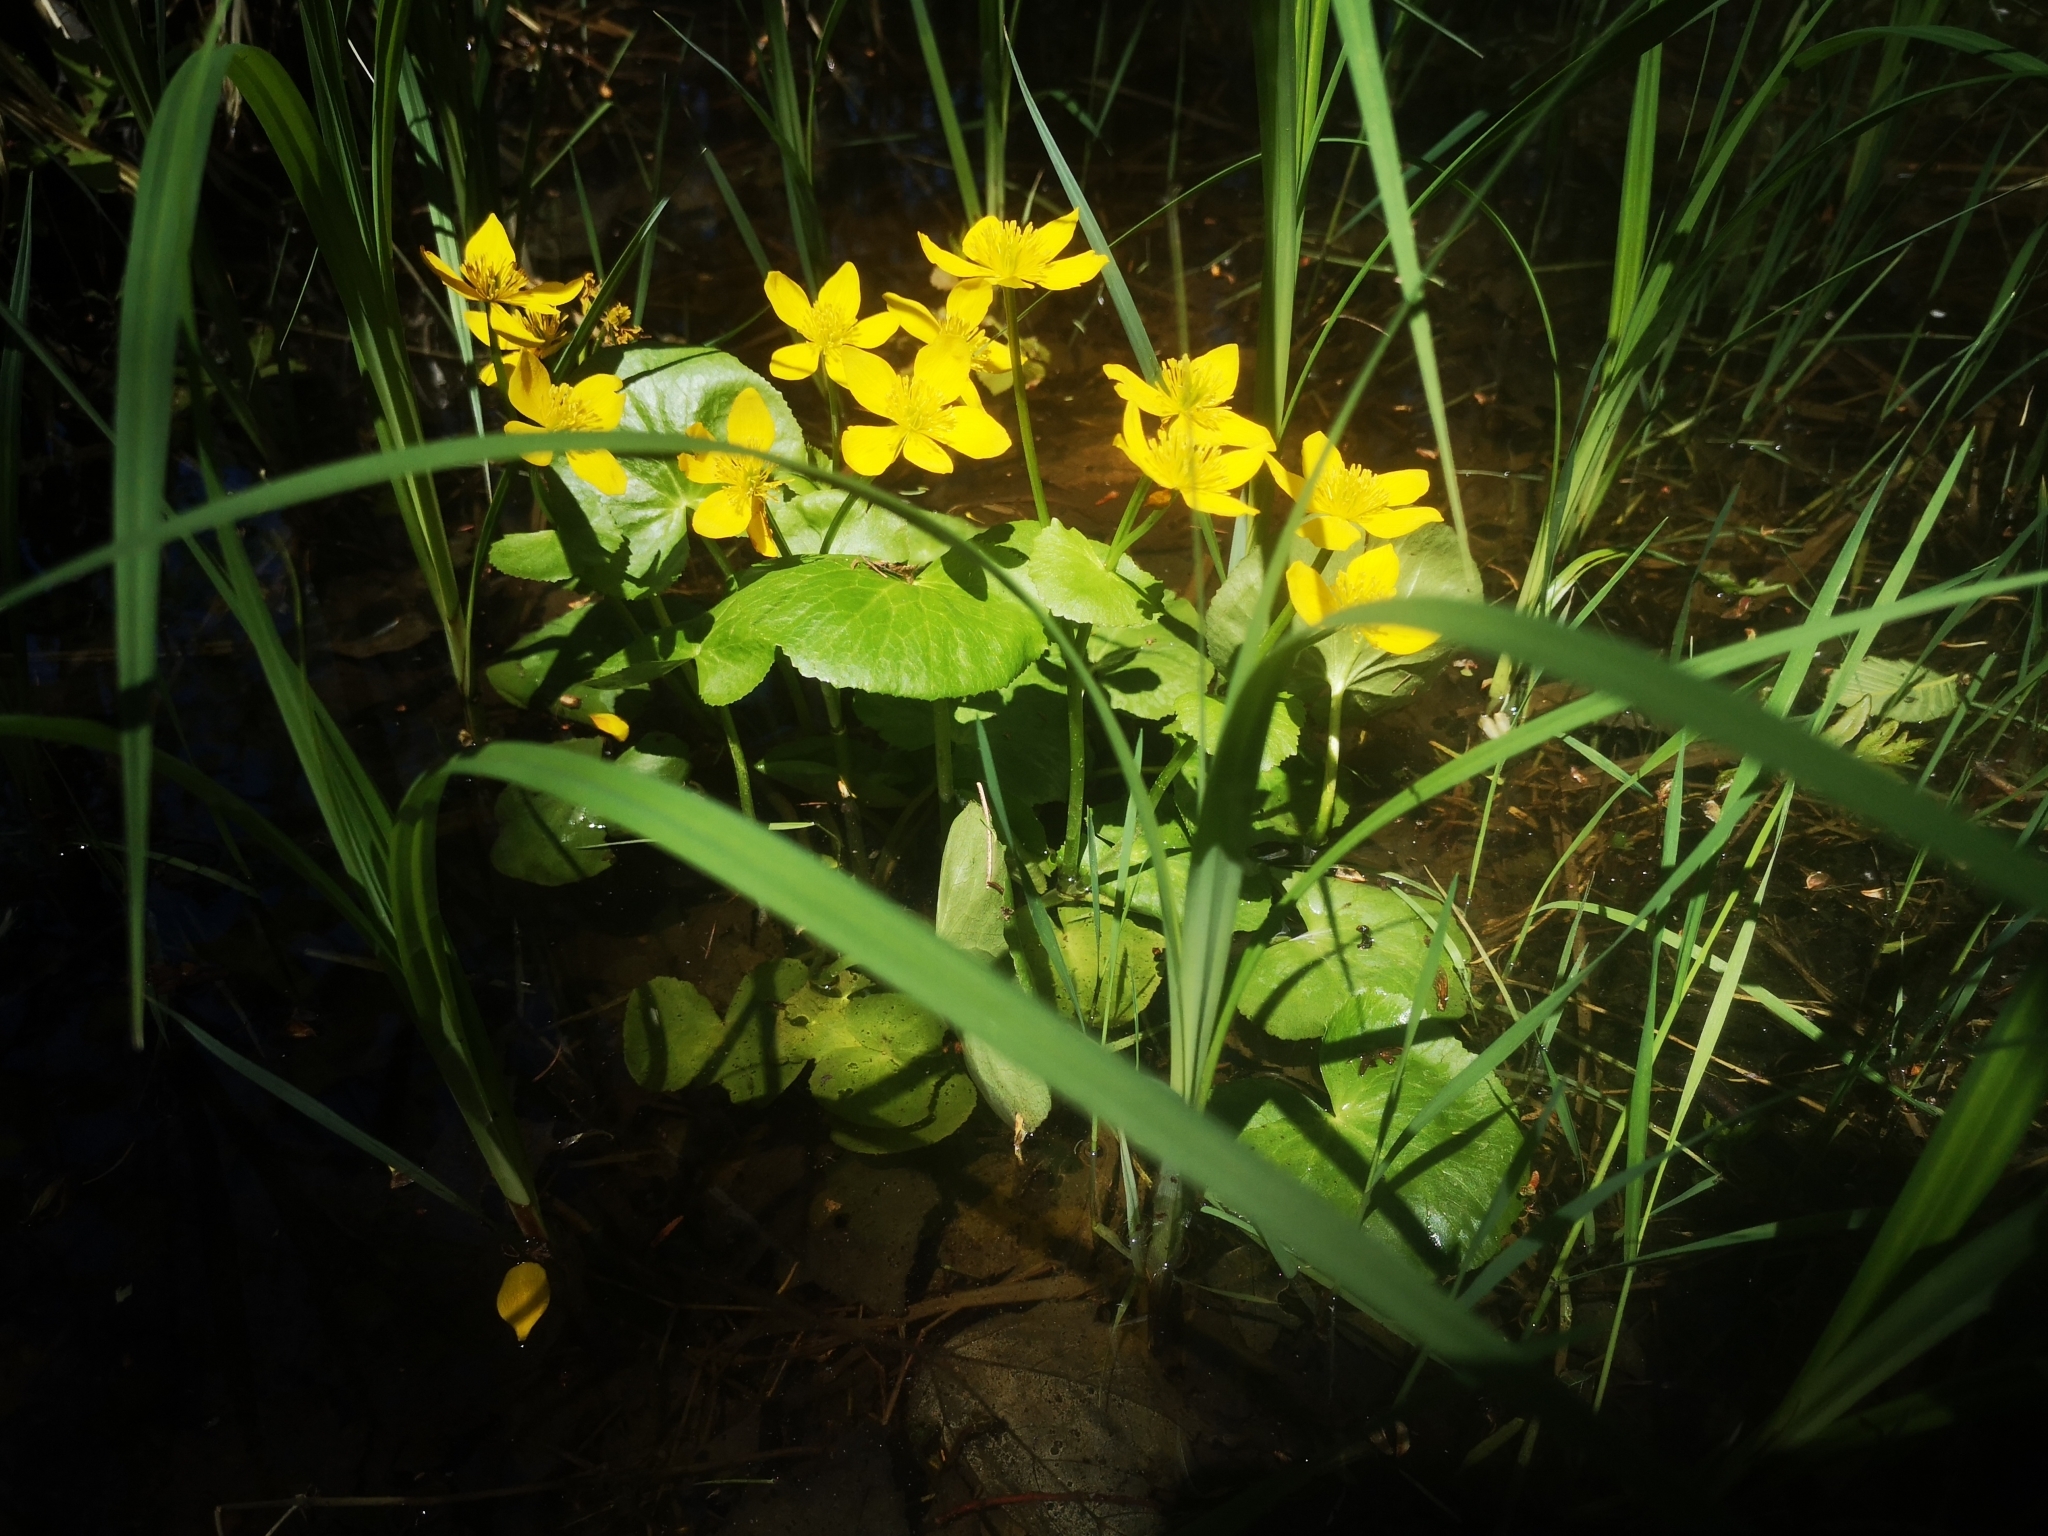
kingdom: Plantae
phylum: Tracheophyta
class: Magnoliopsida
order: Ranunculales
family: Ranunculaceae
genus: Caltha
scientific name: Caltha palustris
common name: Marsh marigold
